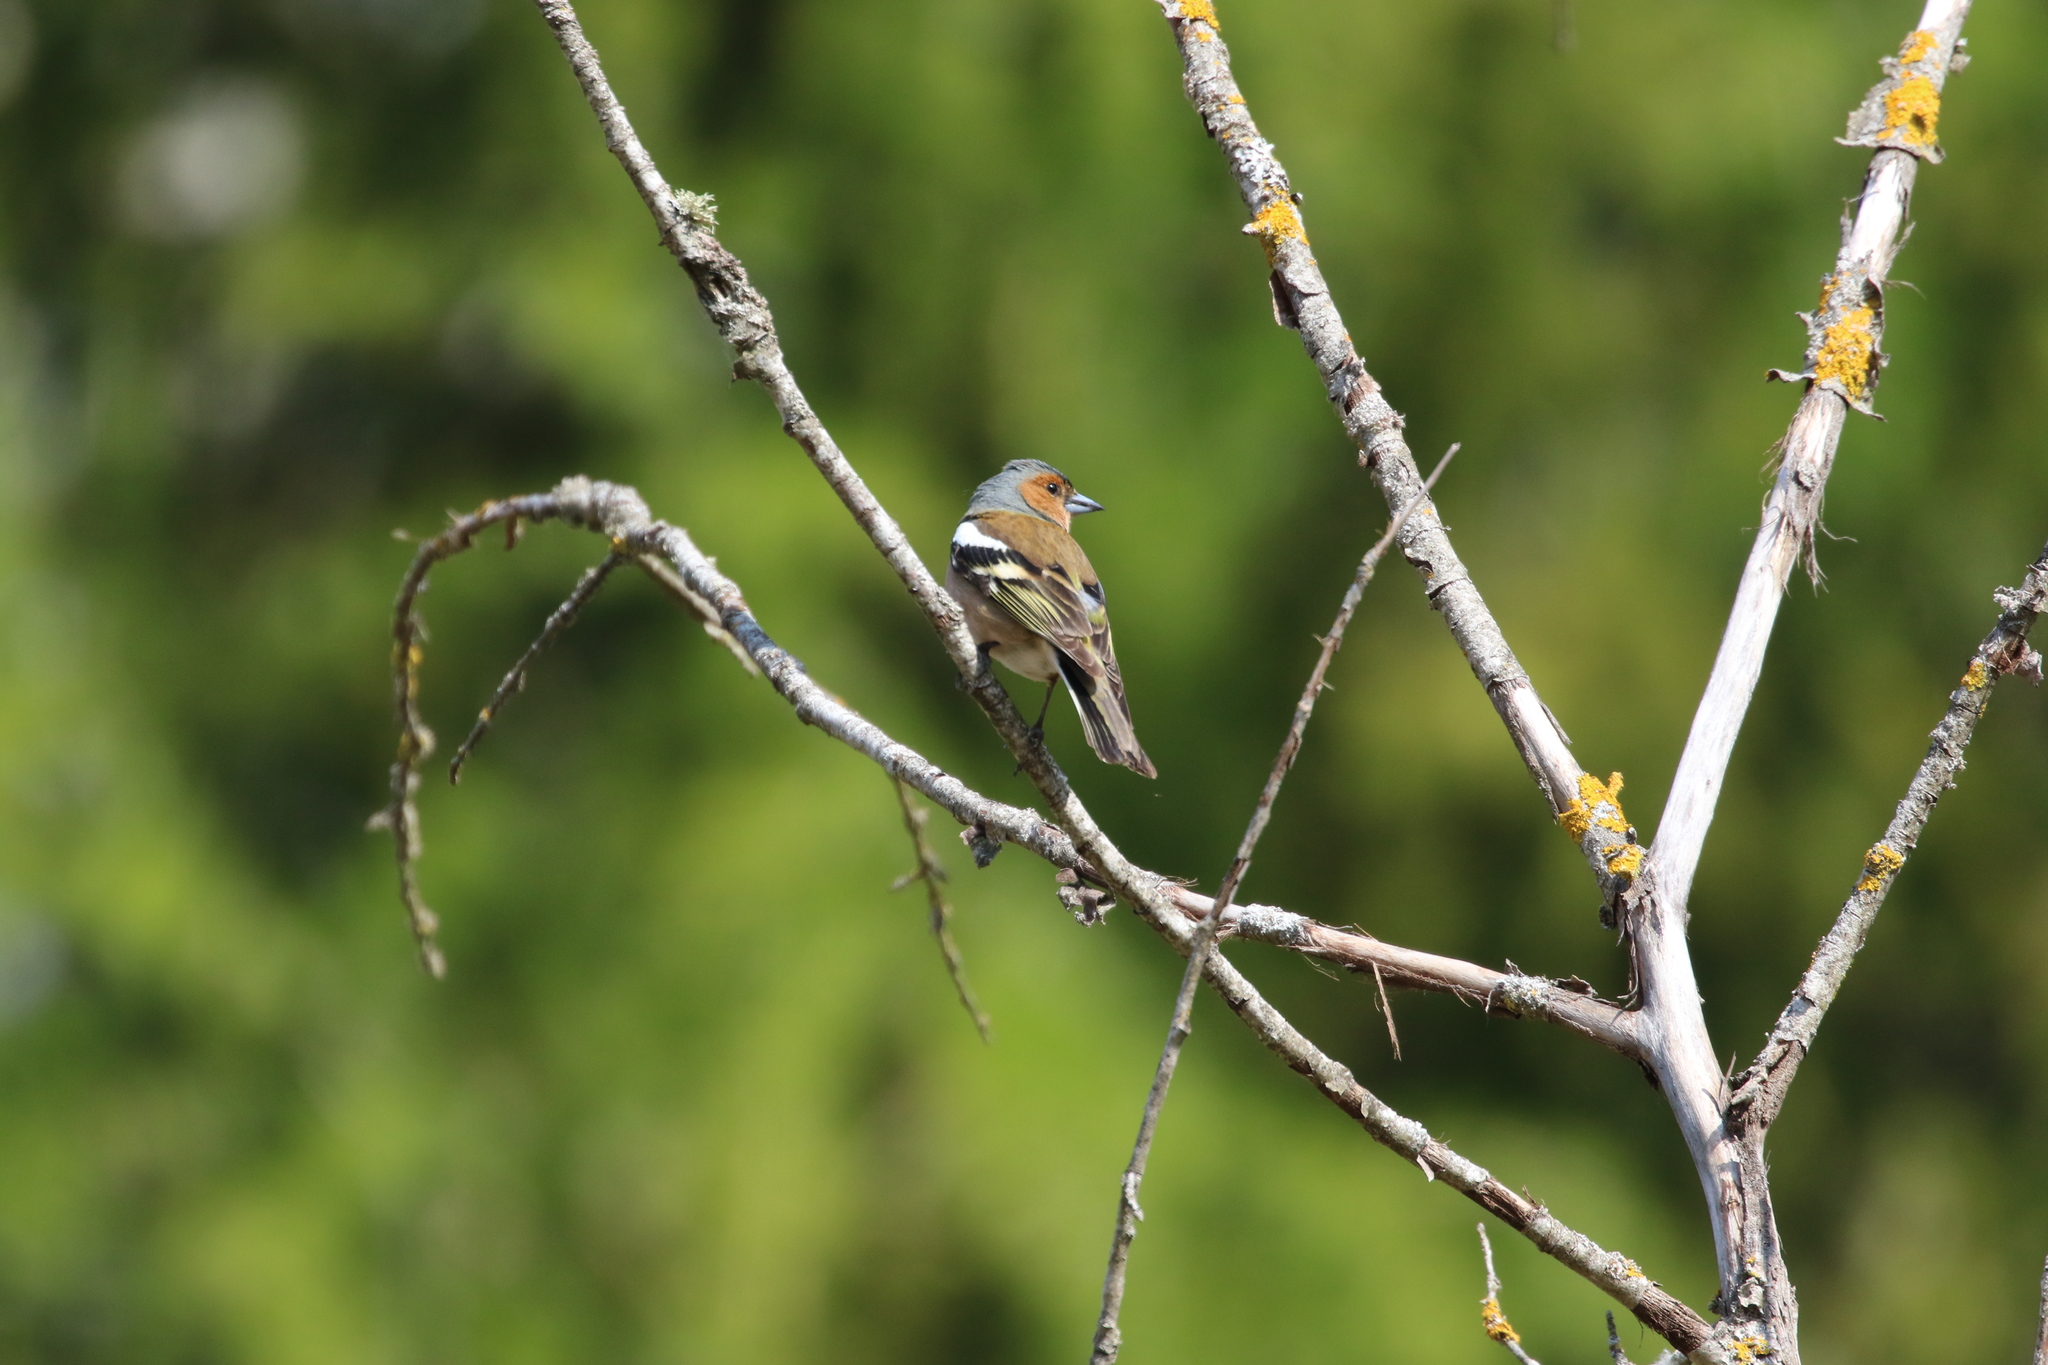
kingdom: Animalia
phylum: Chordata
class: Aves
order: Passeriformes
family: Fringillidae
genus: Fringilla
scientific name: Fringilla coelebs
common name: Common chaffinch
